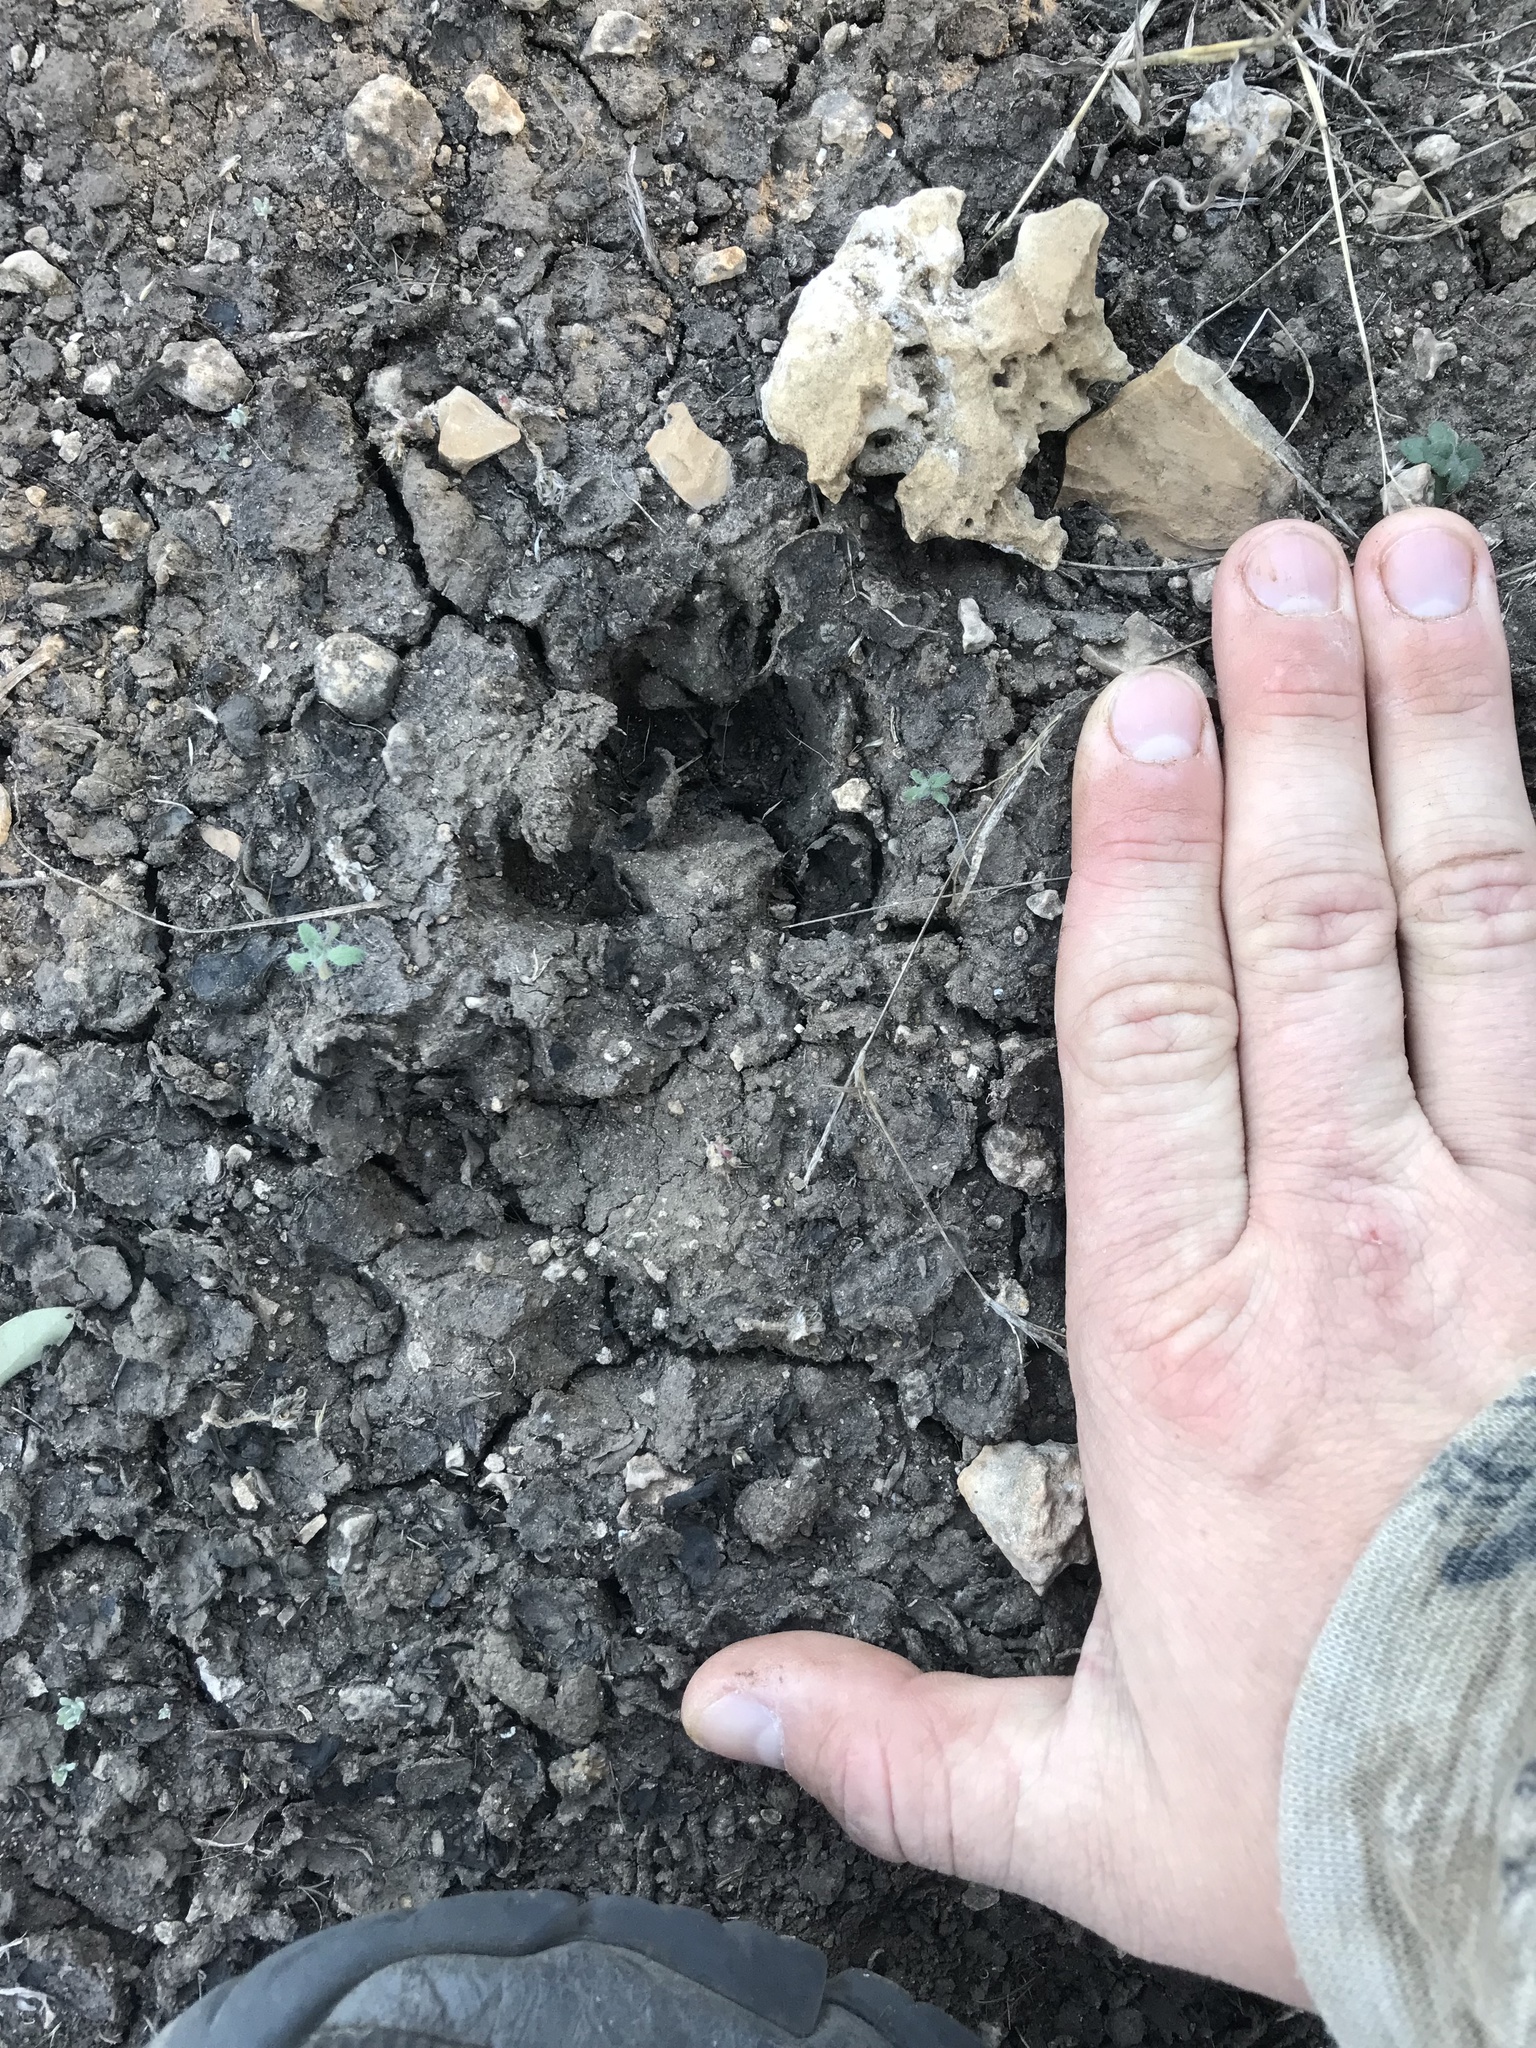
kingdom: Animalia
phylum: Chordata
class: Mammalia
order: Carnivora
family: Canidae
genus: Canis
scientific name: Canis latrans
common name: Coyote
